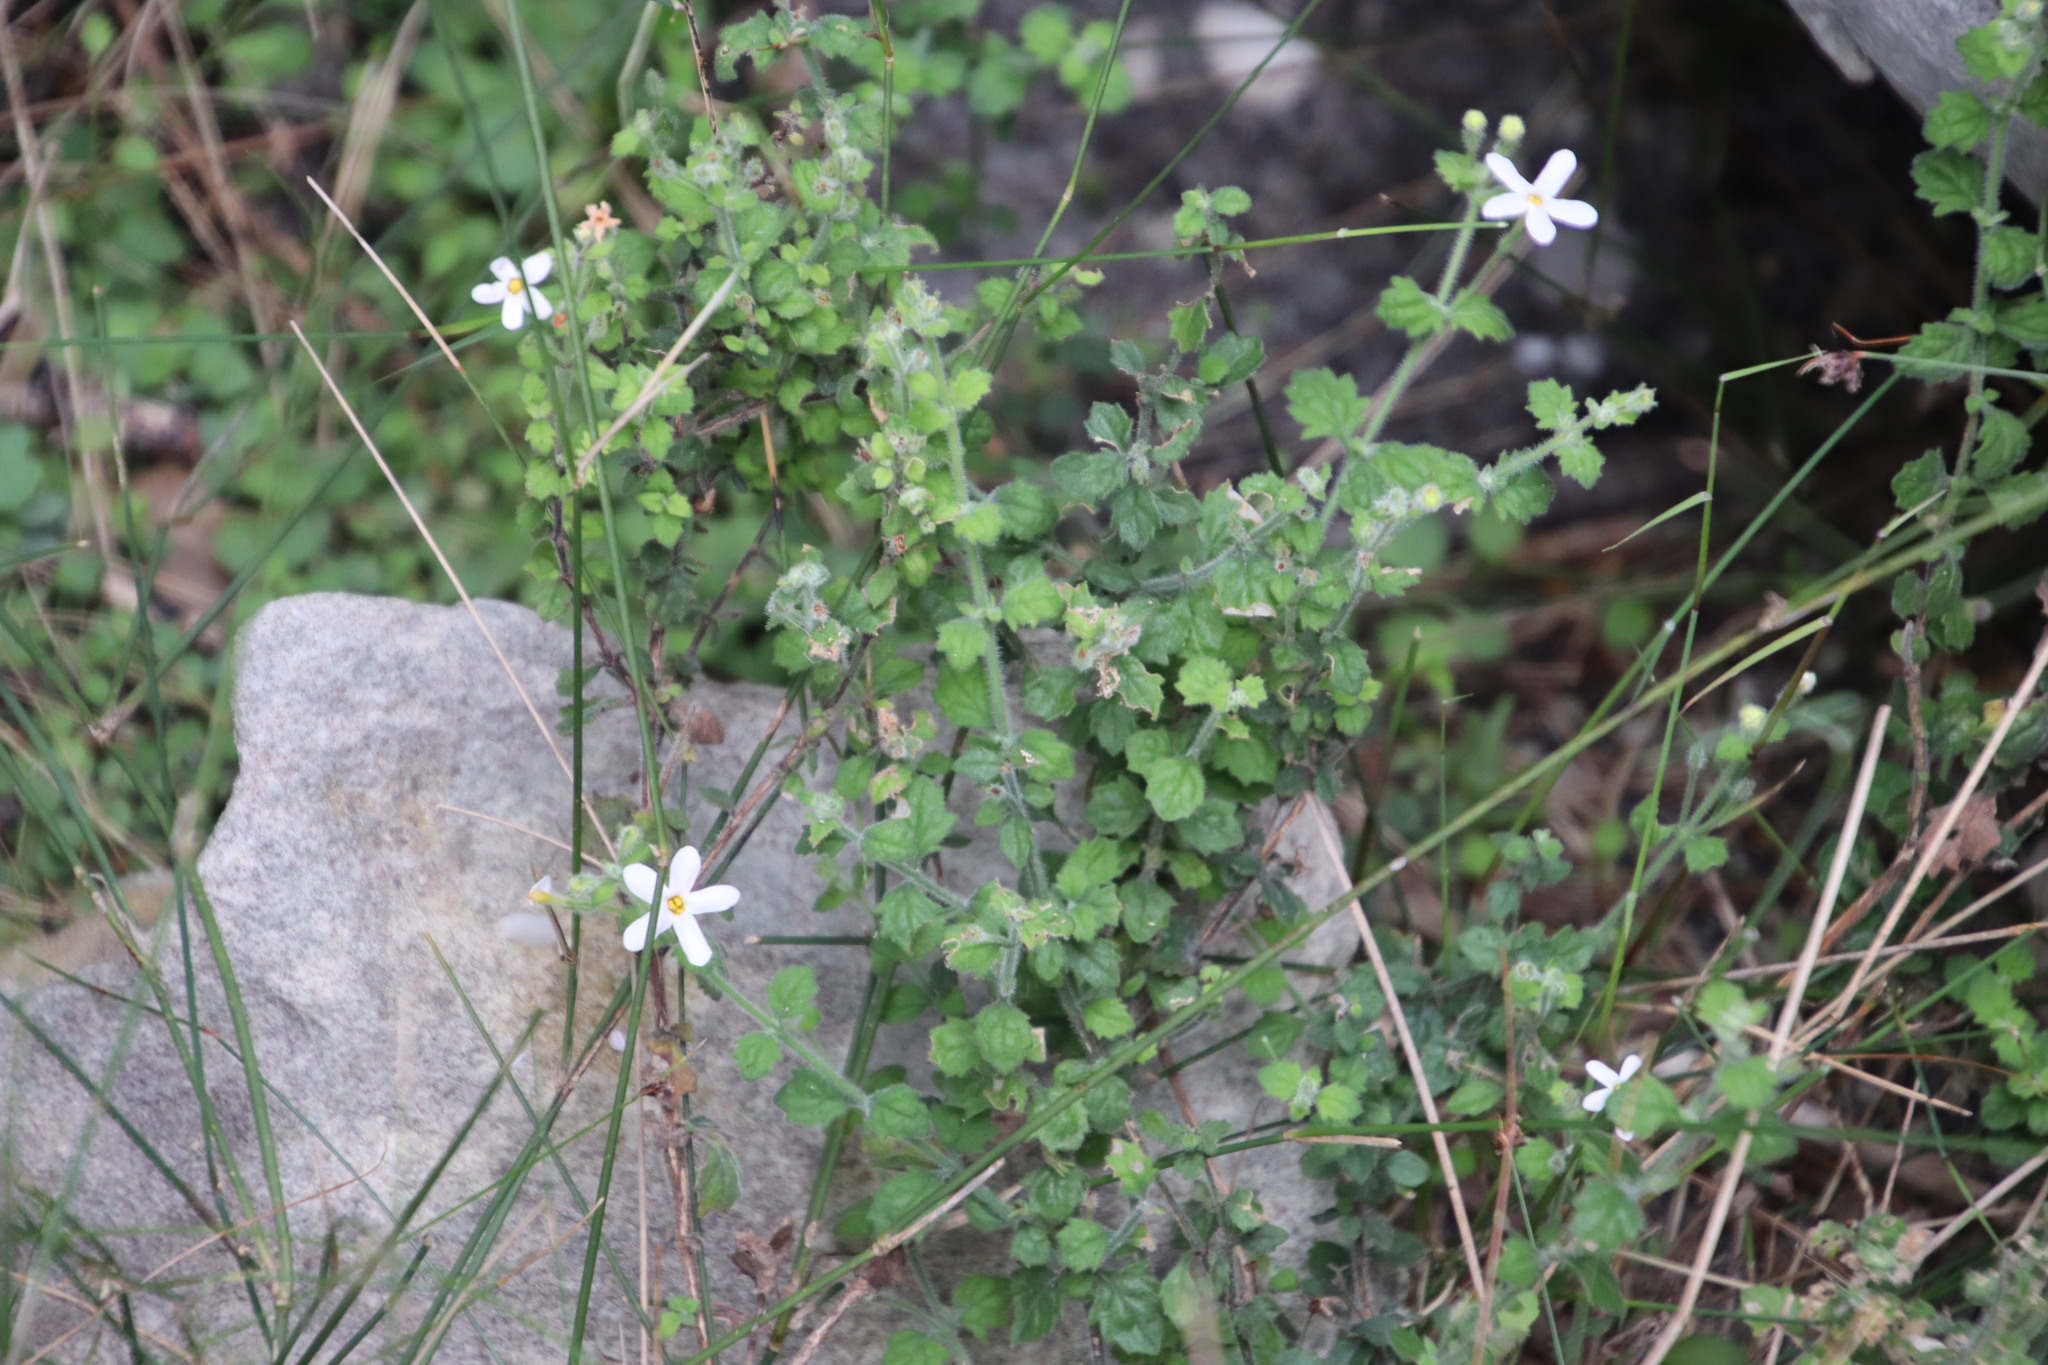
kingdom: Plantae
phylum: Tracheophyta
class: Magnoliopsida
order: Lamiales
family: Scrophulariaceae
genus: Chaenostoma
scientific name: Chaenostoma hispidum
